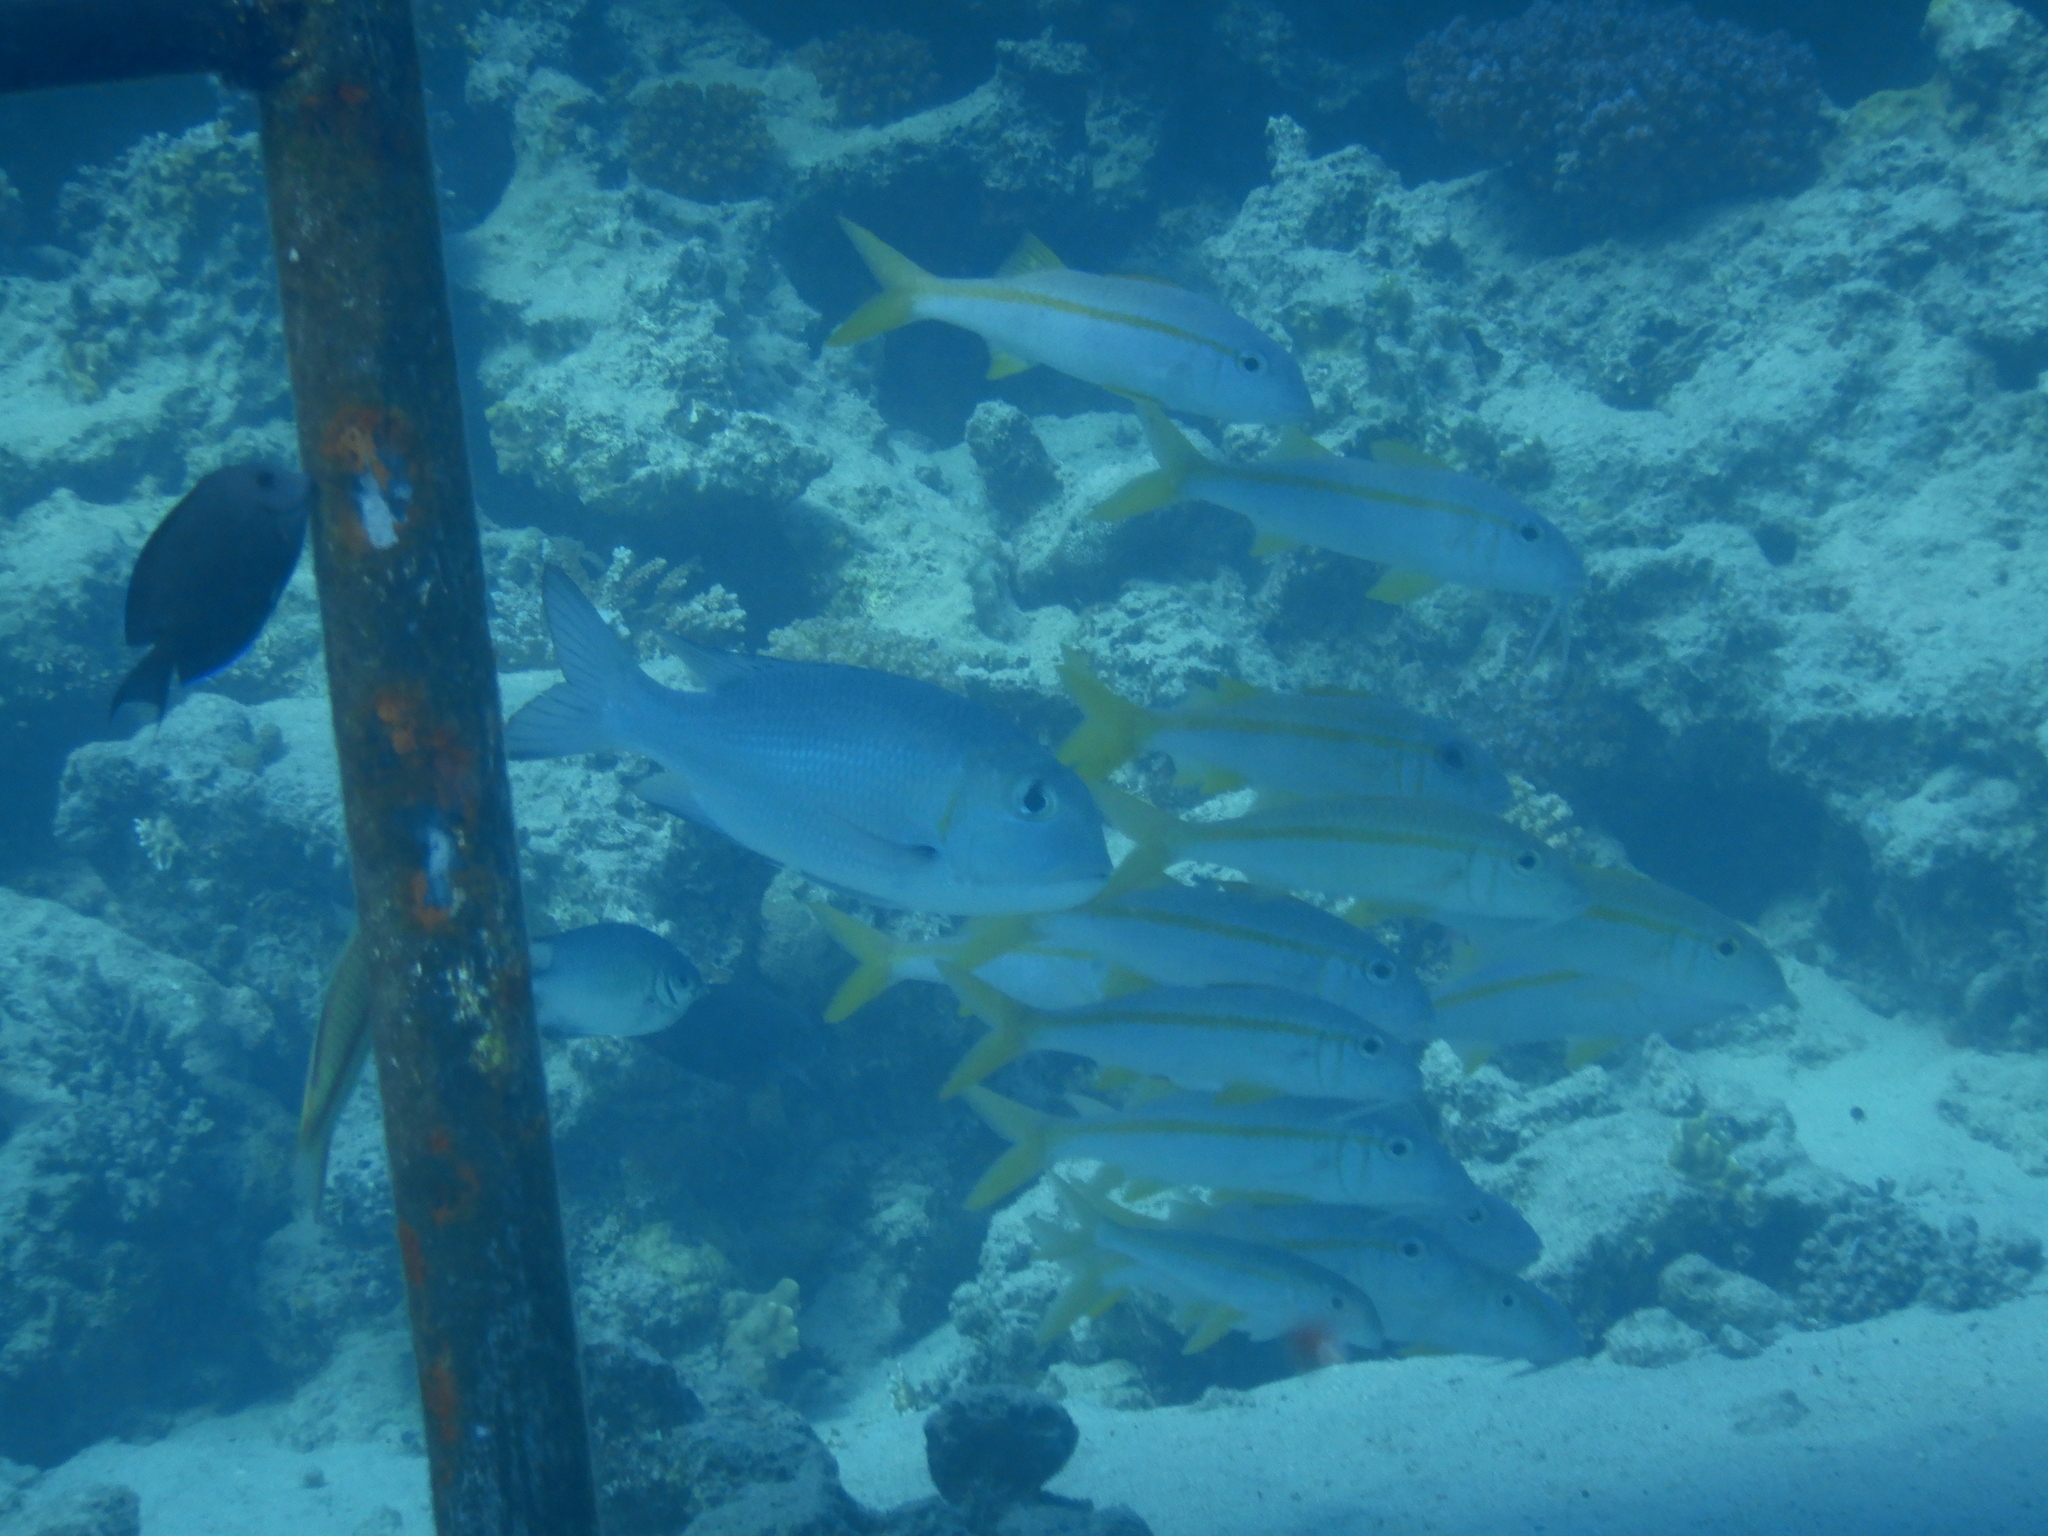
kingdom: Animalia
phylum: Chordata
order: Perciformes
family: Mullidae
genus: Mulloidichthys
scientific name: Mulloidichthys vanicolensis
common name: Yellowfin goatfish
